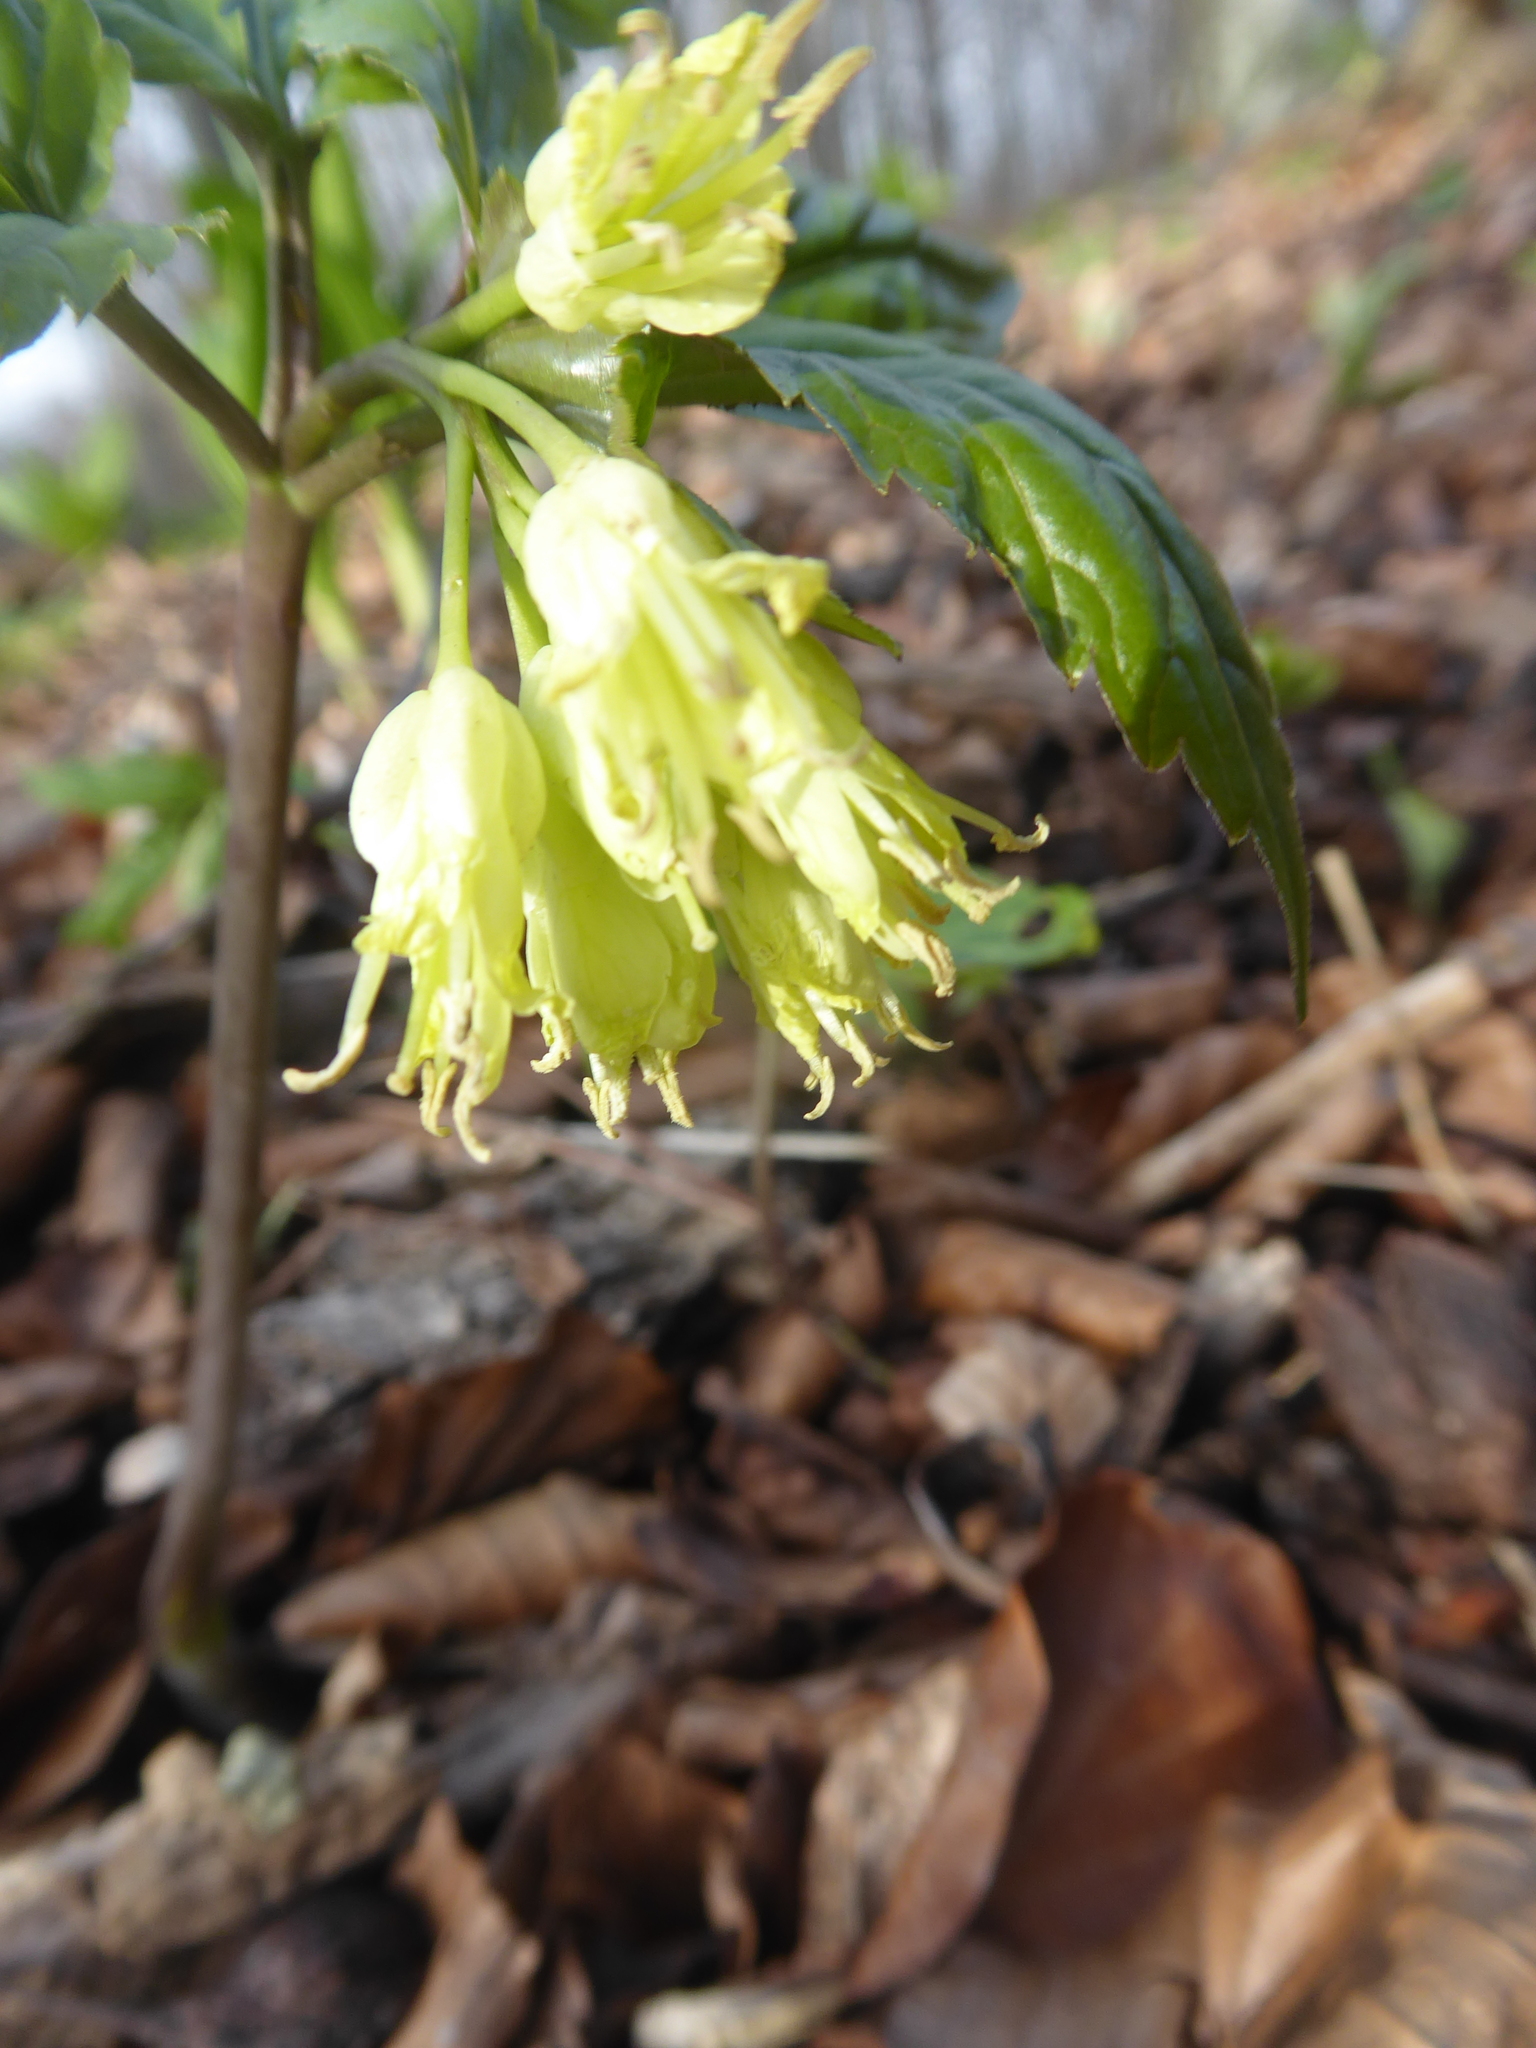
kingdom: Plantae
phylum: Tracheophyta
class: Magnoliopsida
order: Brassicales
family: Brassicaceae
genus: Cardamine
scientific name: Cardamine enneaphyllos
